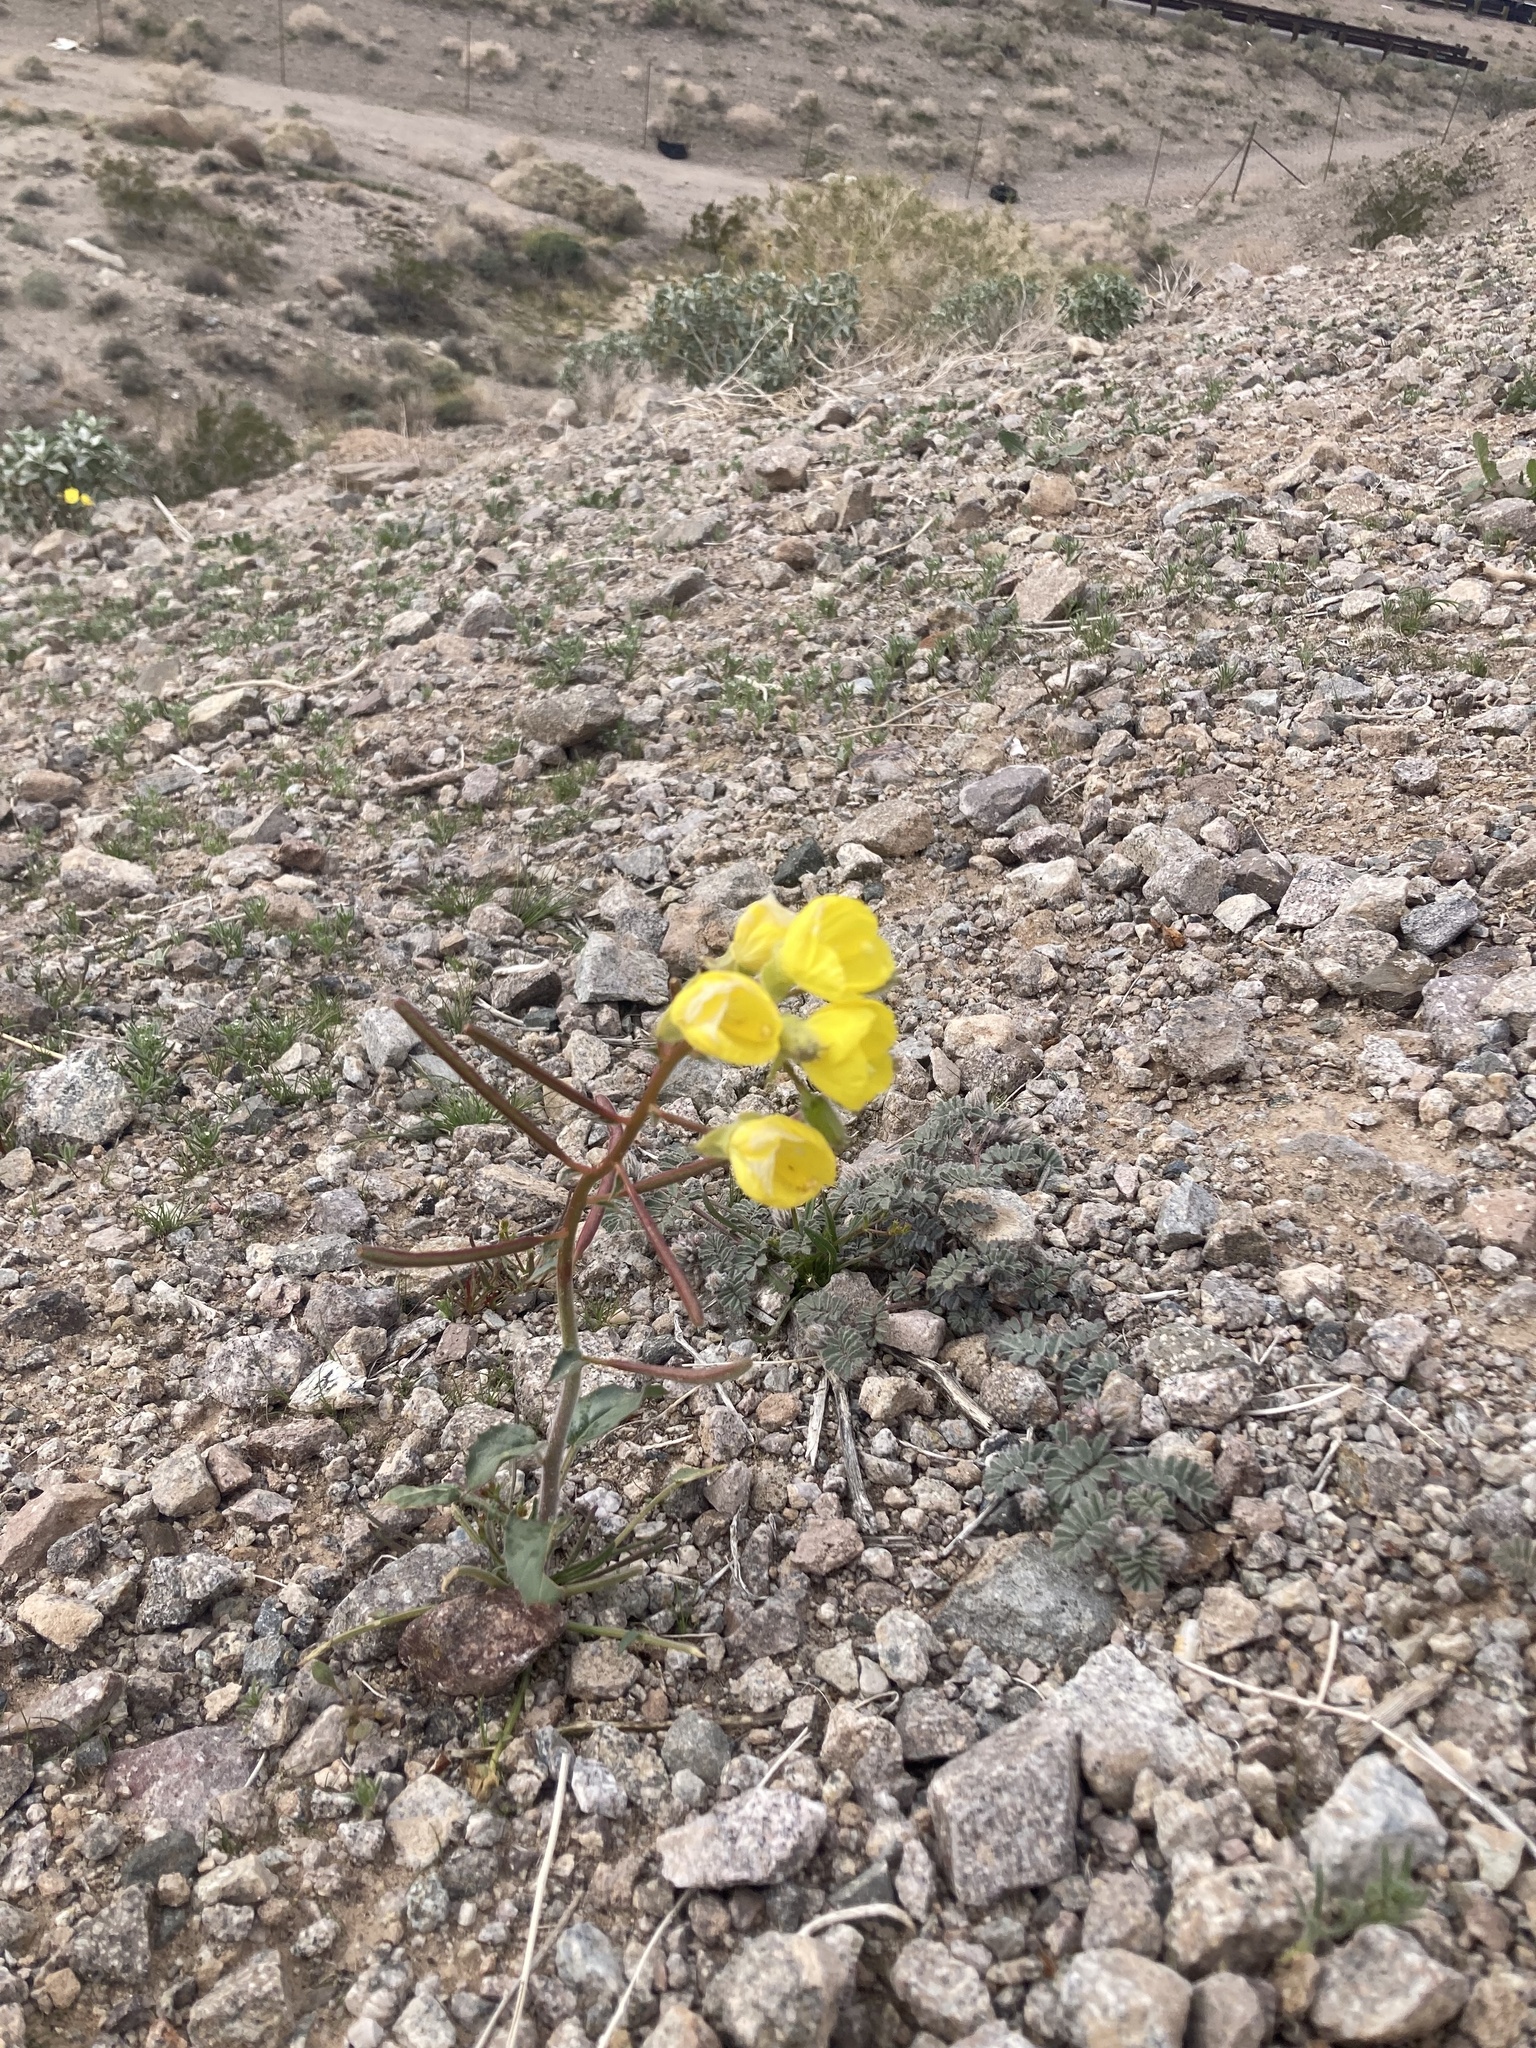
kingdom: Plantae
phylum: Tracheophyta
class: Magnoliopsida
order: Myrtales
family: Onagraceae
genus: Chylismia
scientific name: Chylismia brevipes
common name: Yellow cups
